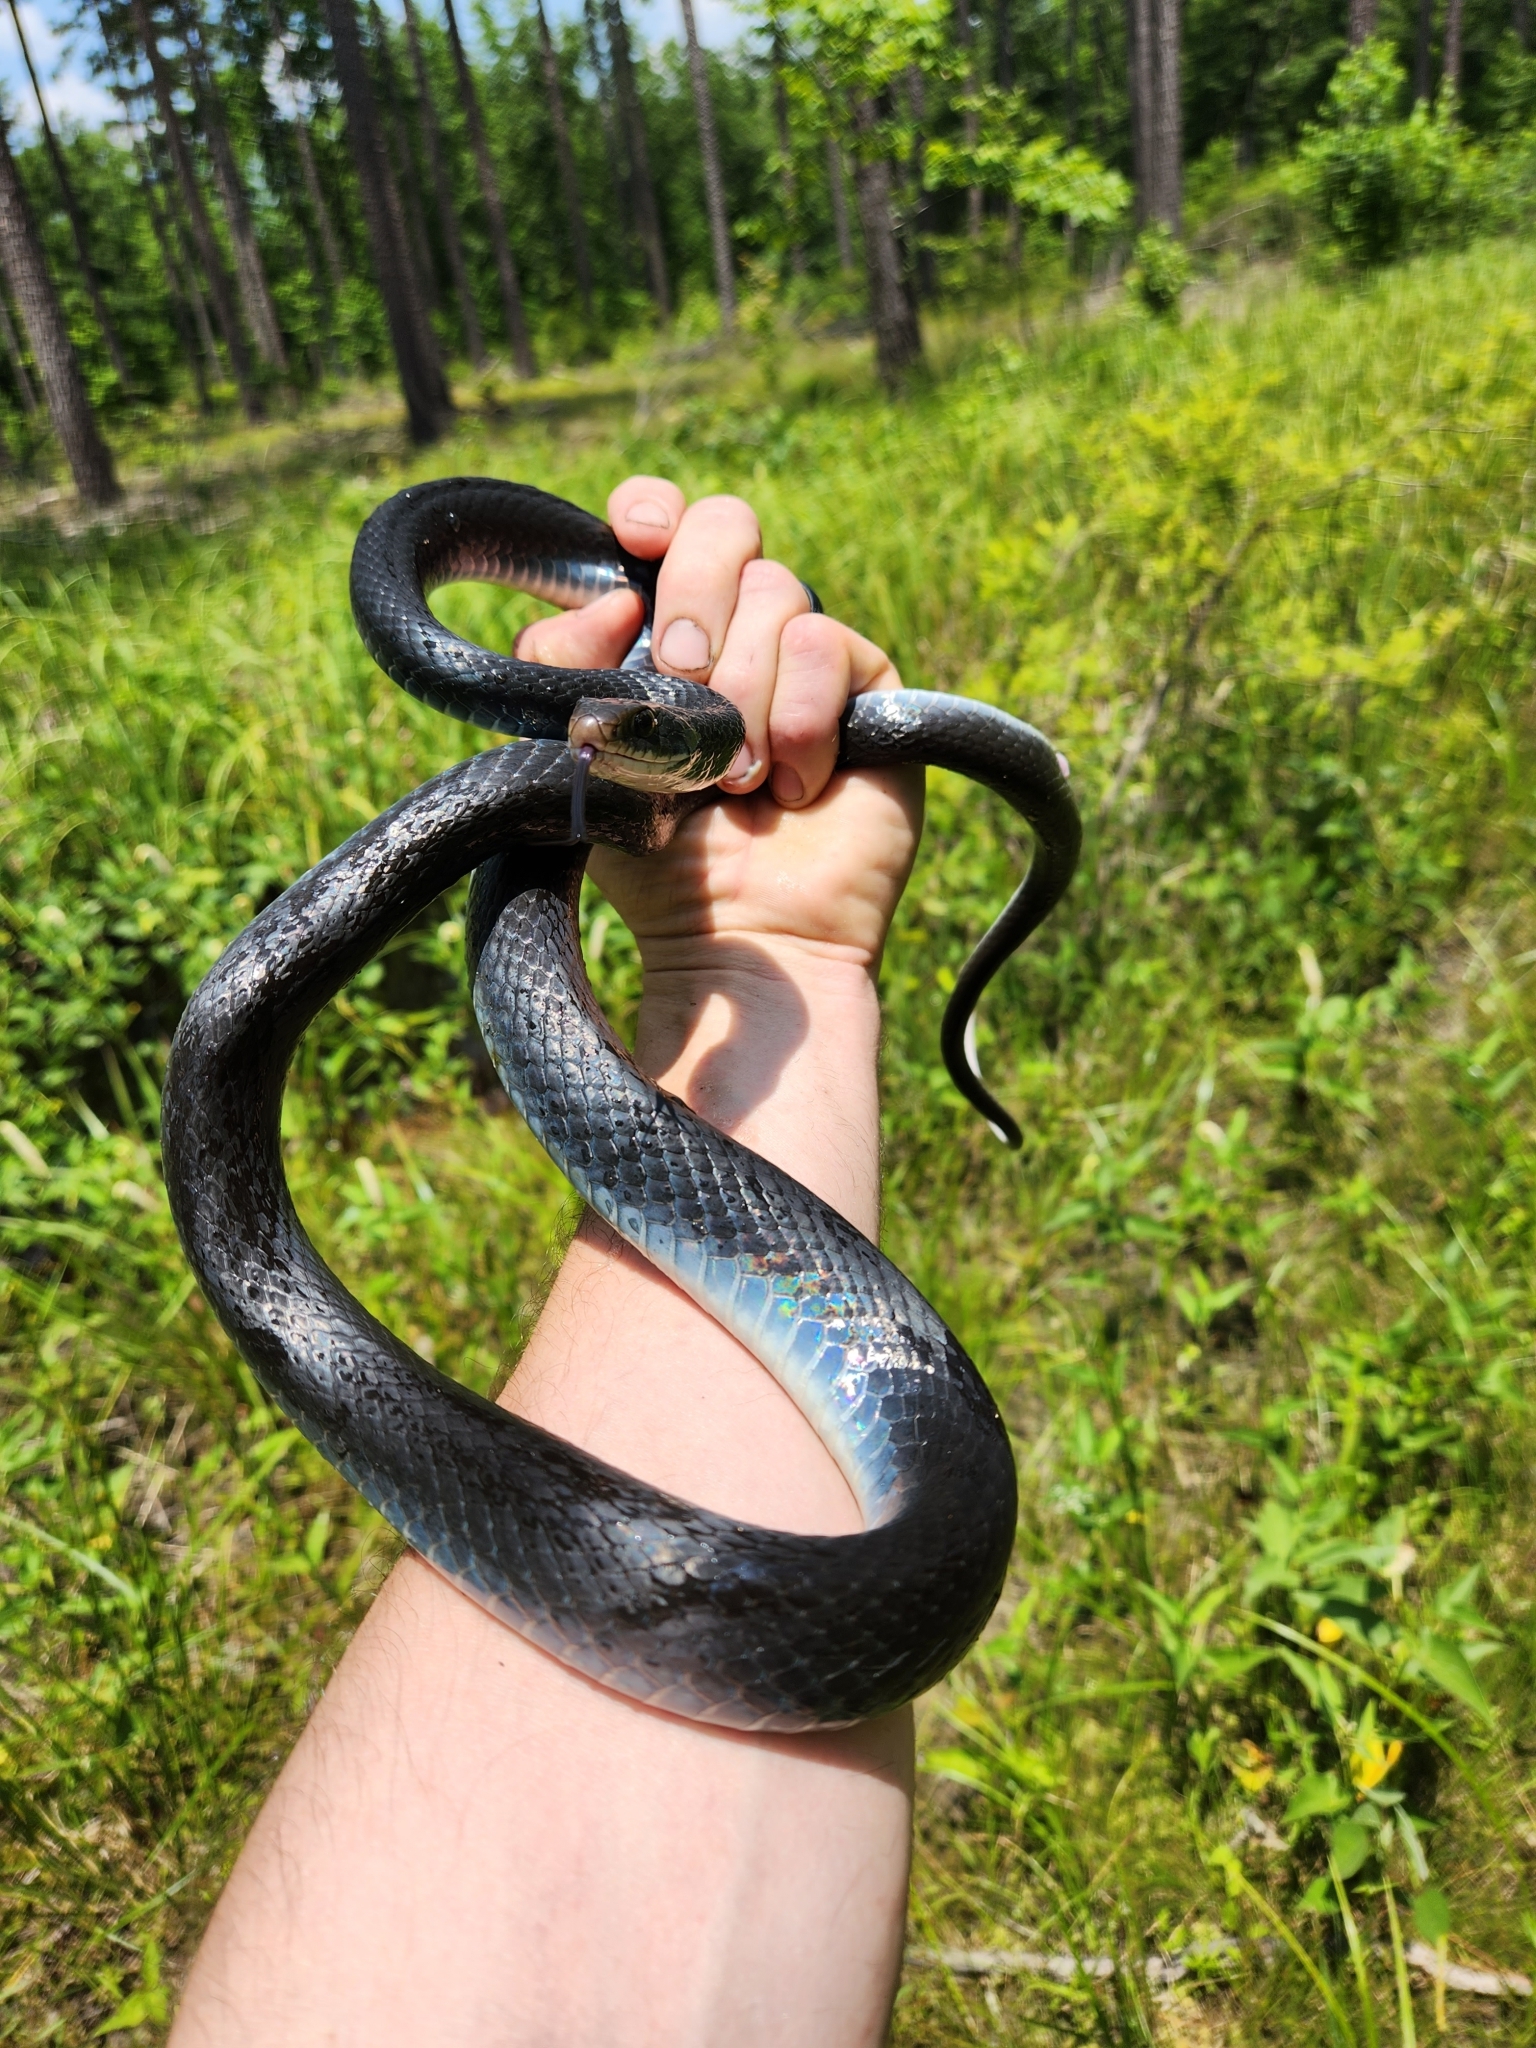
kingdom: Animalia
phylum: Chordata
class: Squamata
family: Colubridae
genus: Coluber
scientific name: Coluber constrictor
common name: Eastern racer
